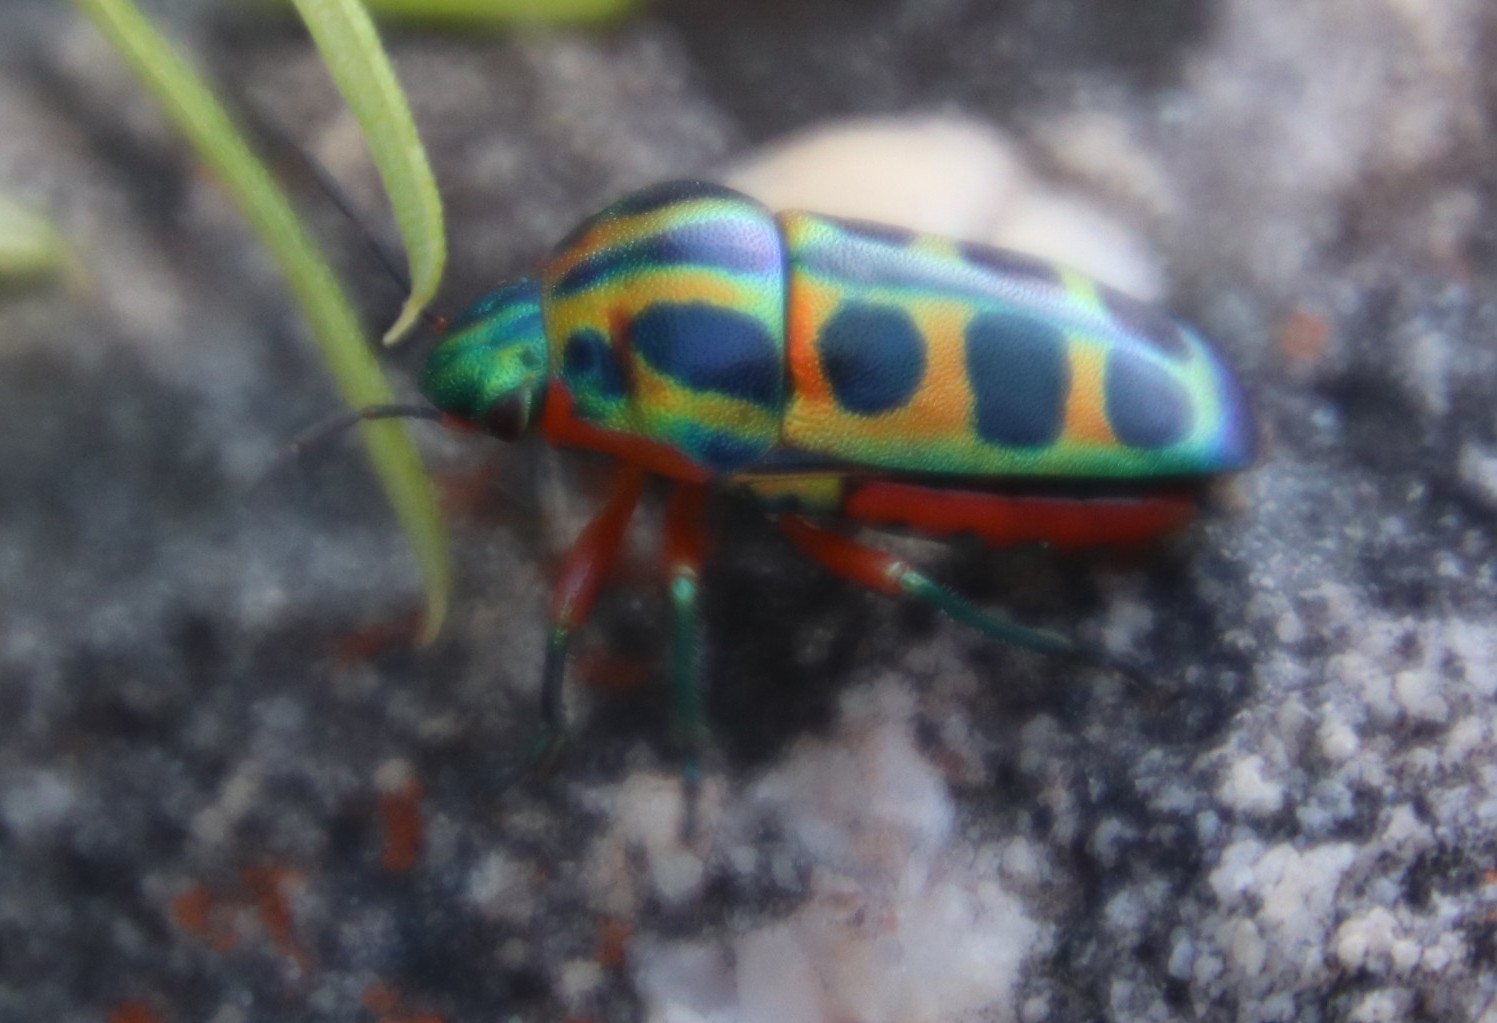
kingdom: Plantae
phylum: Tracheophyta
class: Magnoliopsida
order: Sapindales
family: Anacardiaceae
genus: Searsia
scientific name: Searsia angustifolia
